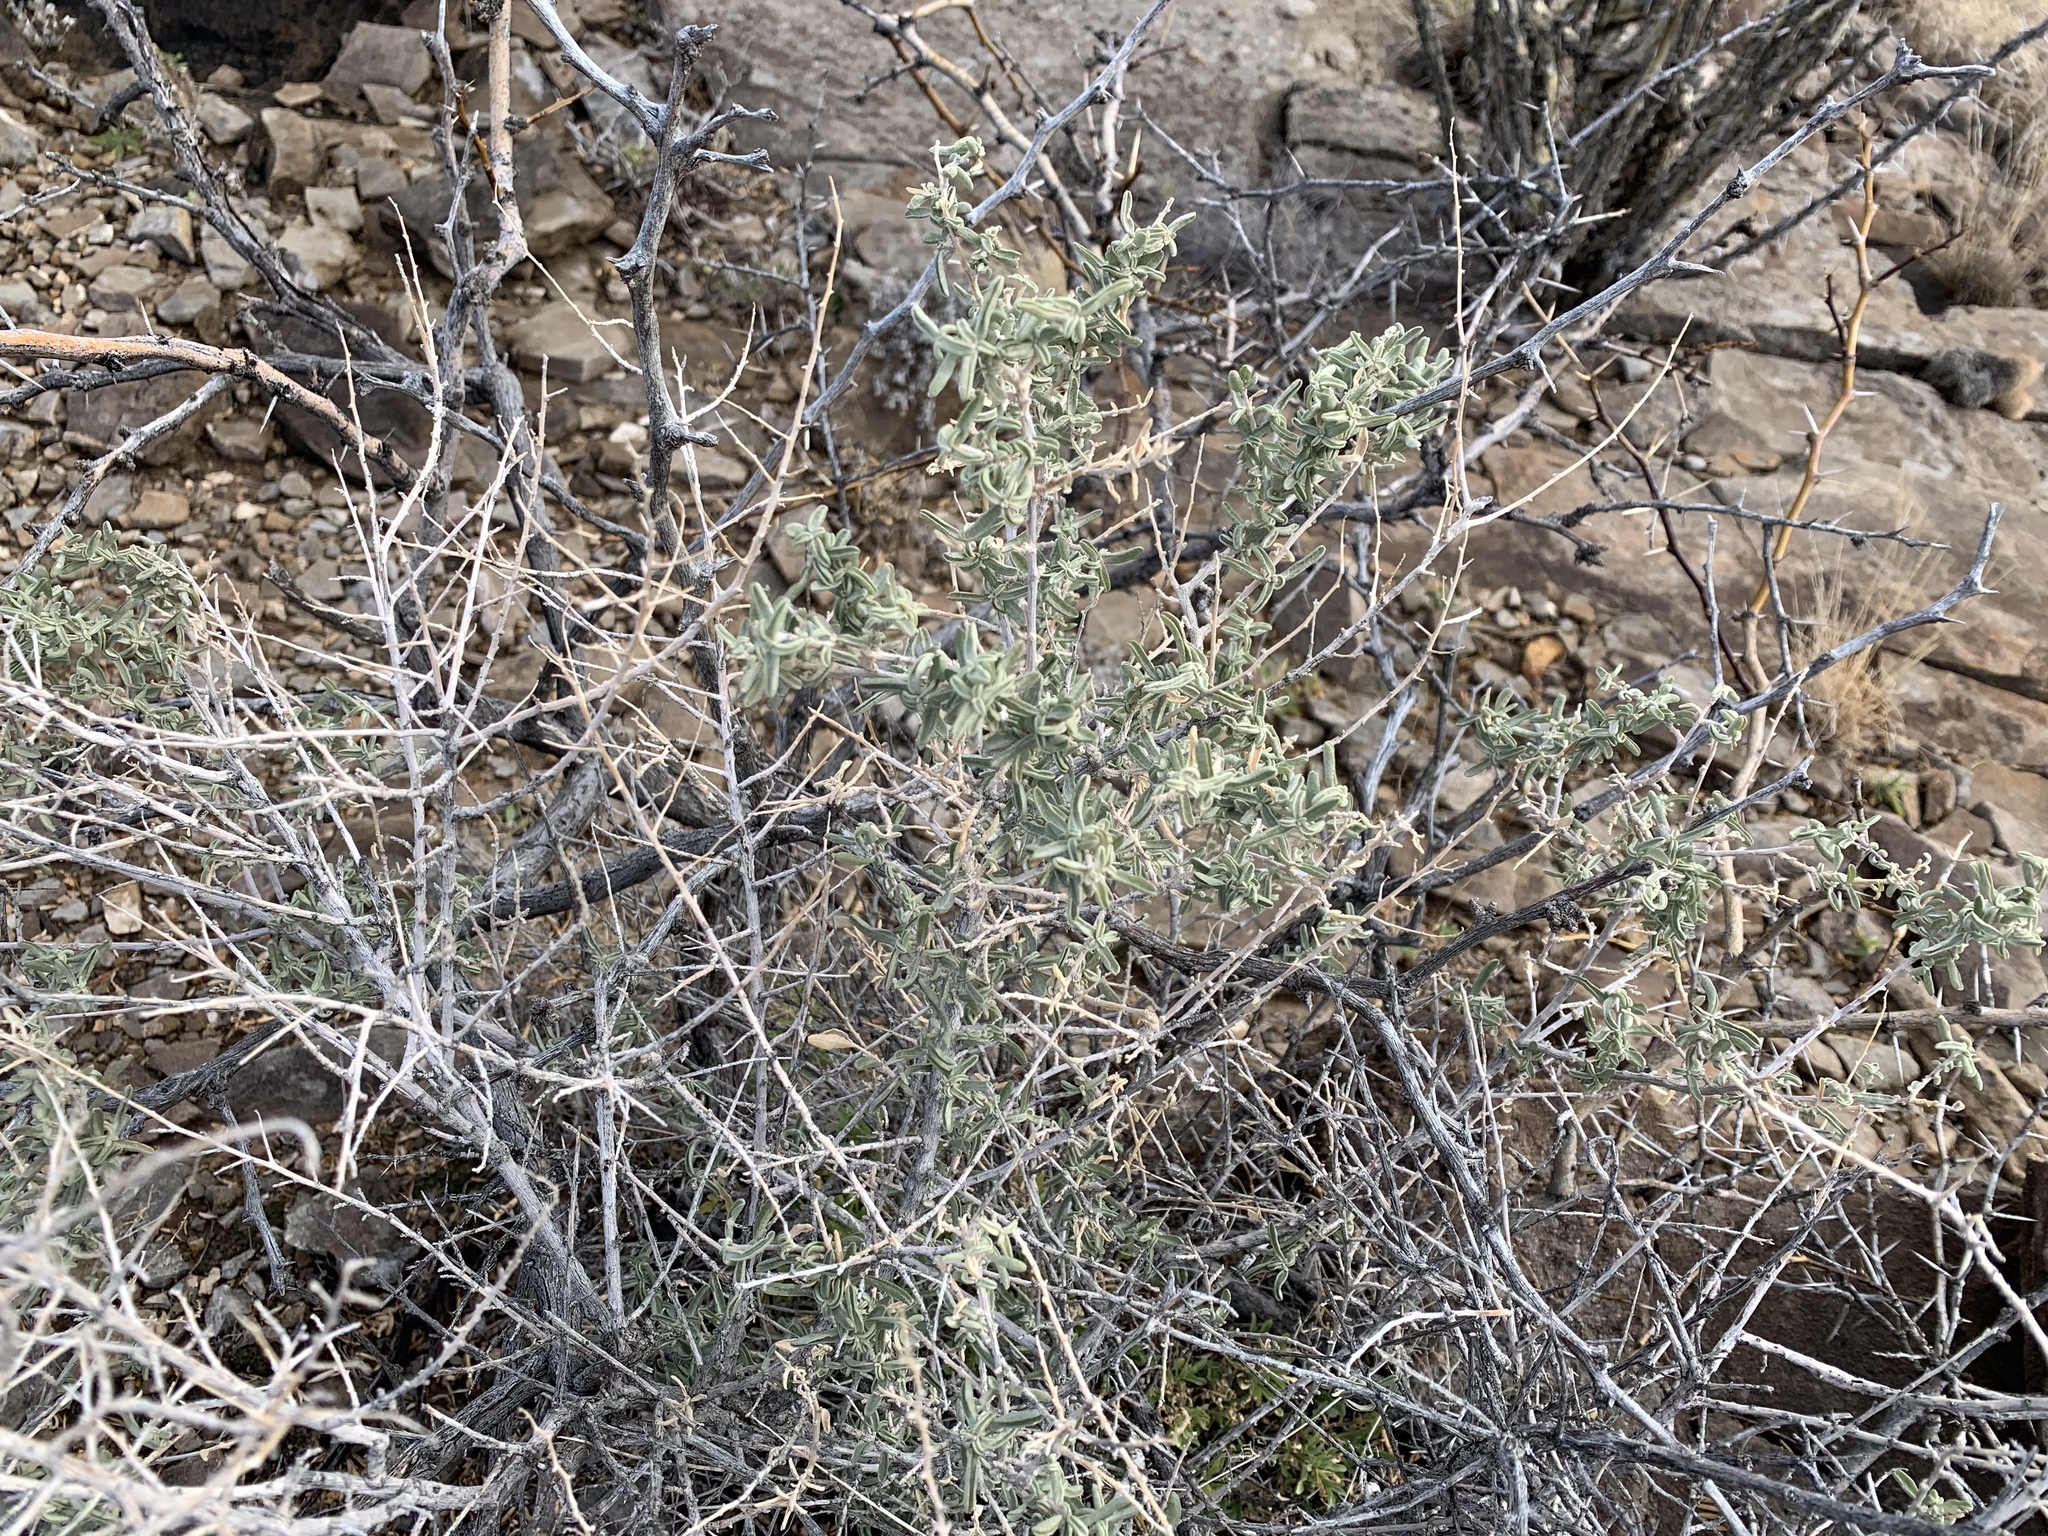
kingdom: Plantae
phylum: Tracheophyta
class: Magnoliopsida
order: Caryophyllales
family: Amaranthaceae
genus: Atriplex
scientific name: Atriplex canescens
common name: Four-wing saltbush
